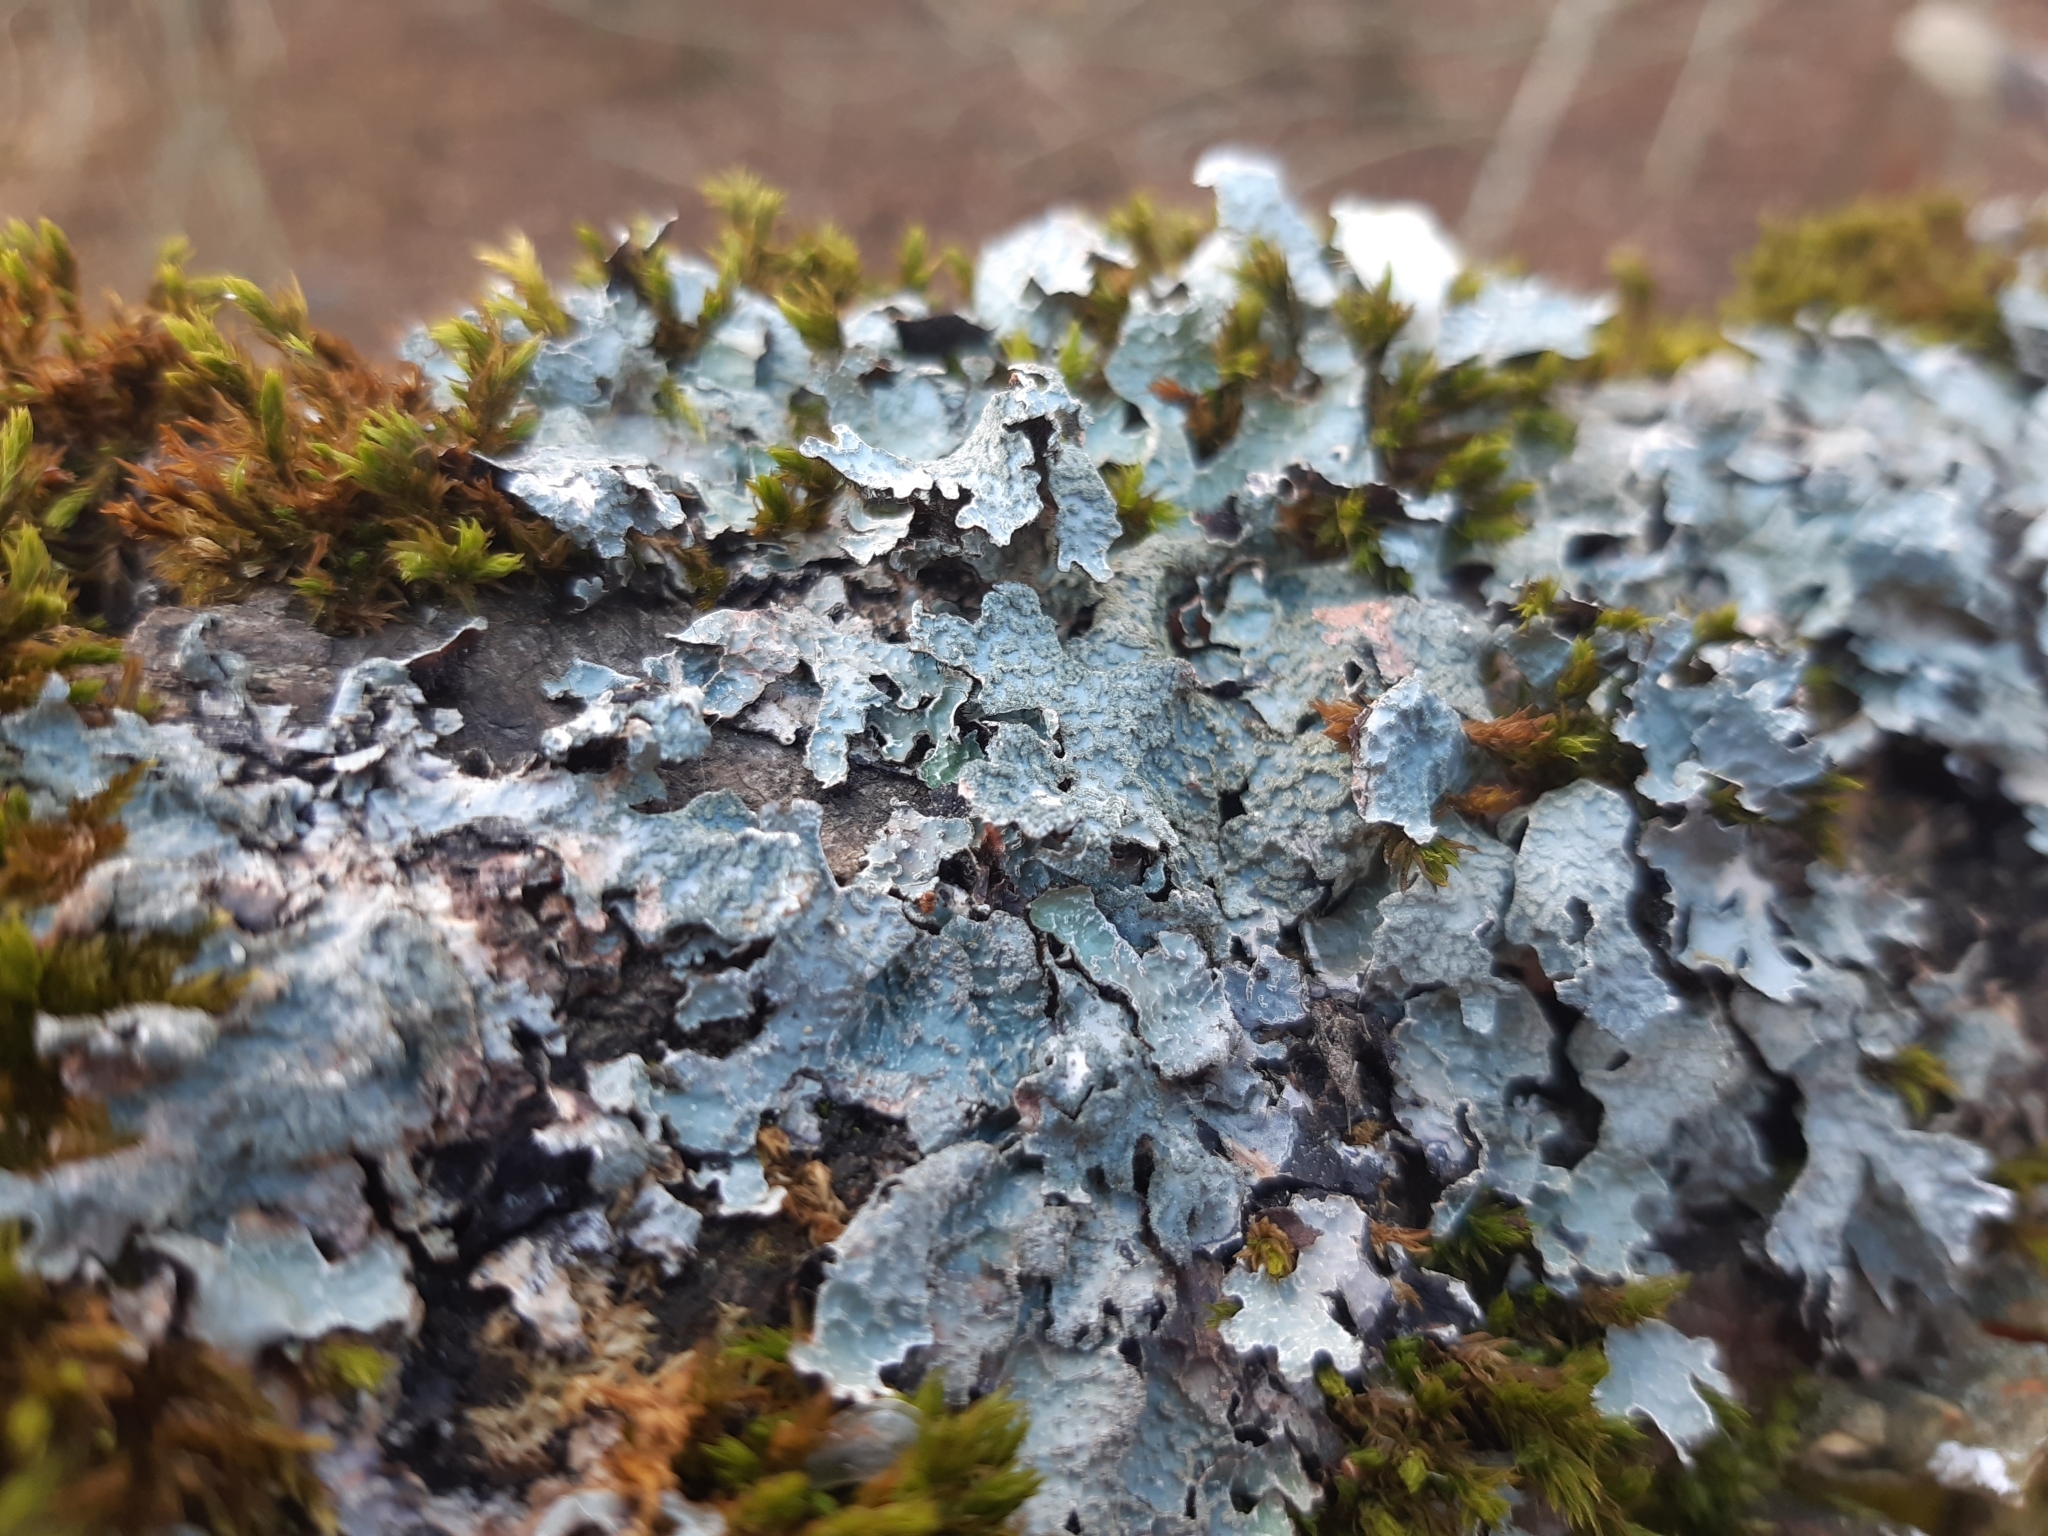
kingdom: Fungi
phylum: Ascomycota
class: Lecanoromycetes
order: Lecanorales
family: Parmeliaceae
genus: Parmelia
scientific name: Parmelia sulcata
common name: Netted shield lichen
